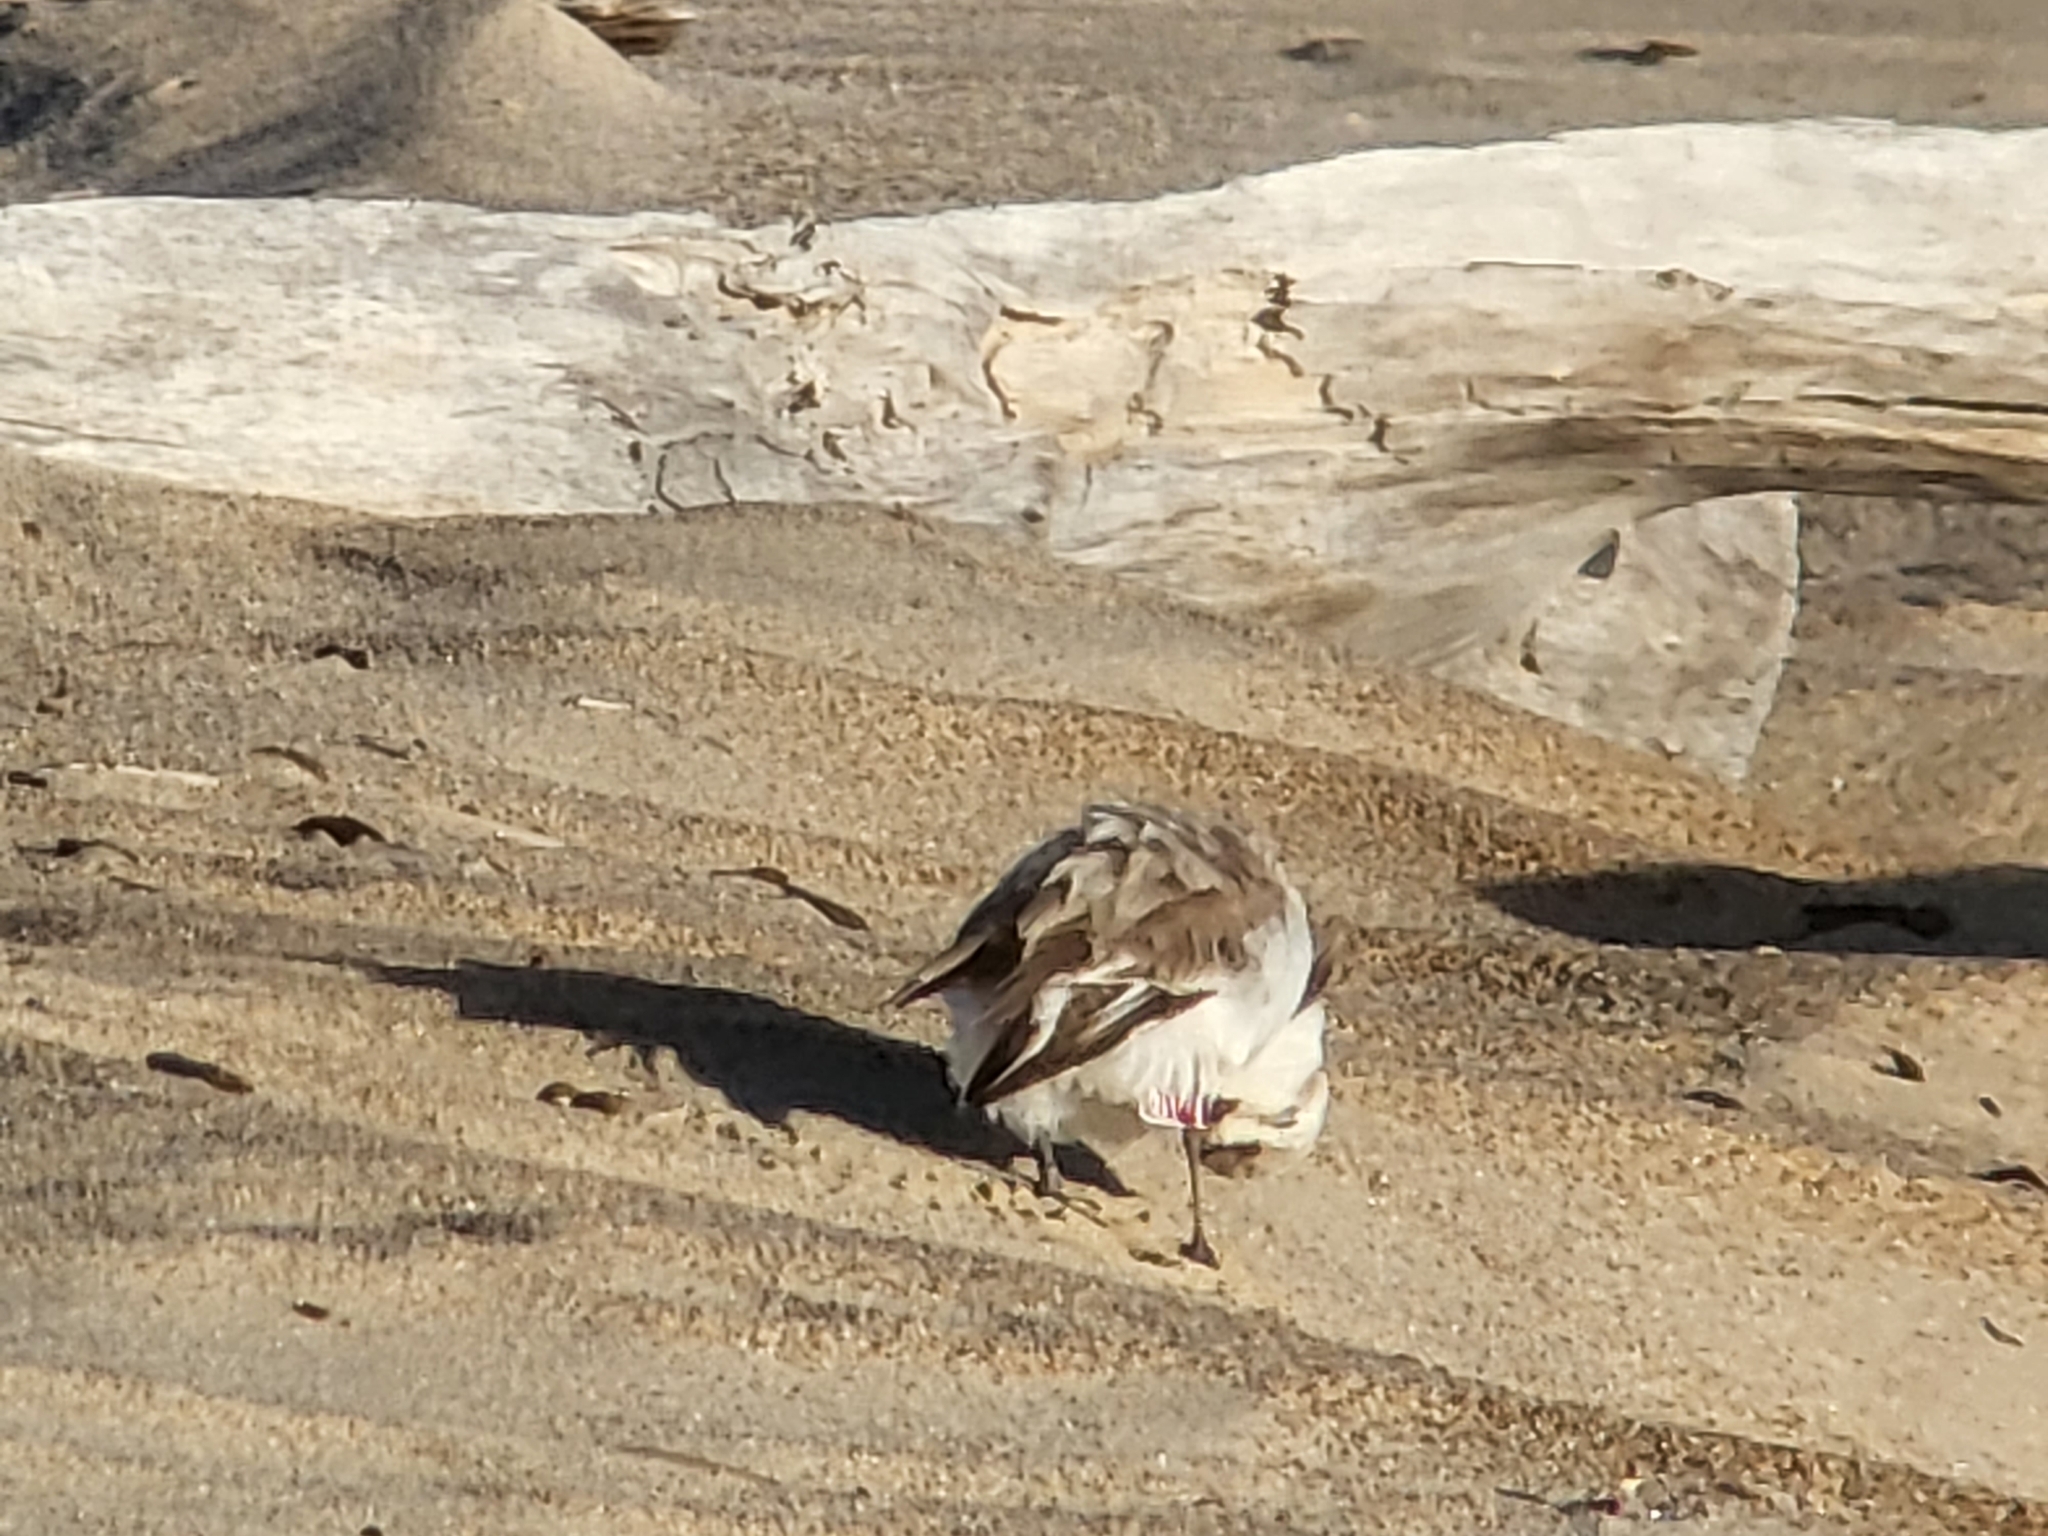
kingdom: Animalia
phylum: Chordata
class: Aves
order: Charadriiformes
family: Charadriidae
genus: Anarhynchus
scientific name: Anarhynchus
